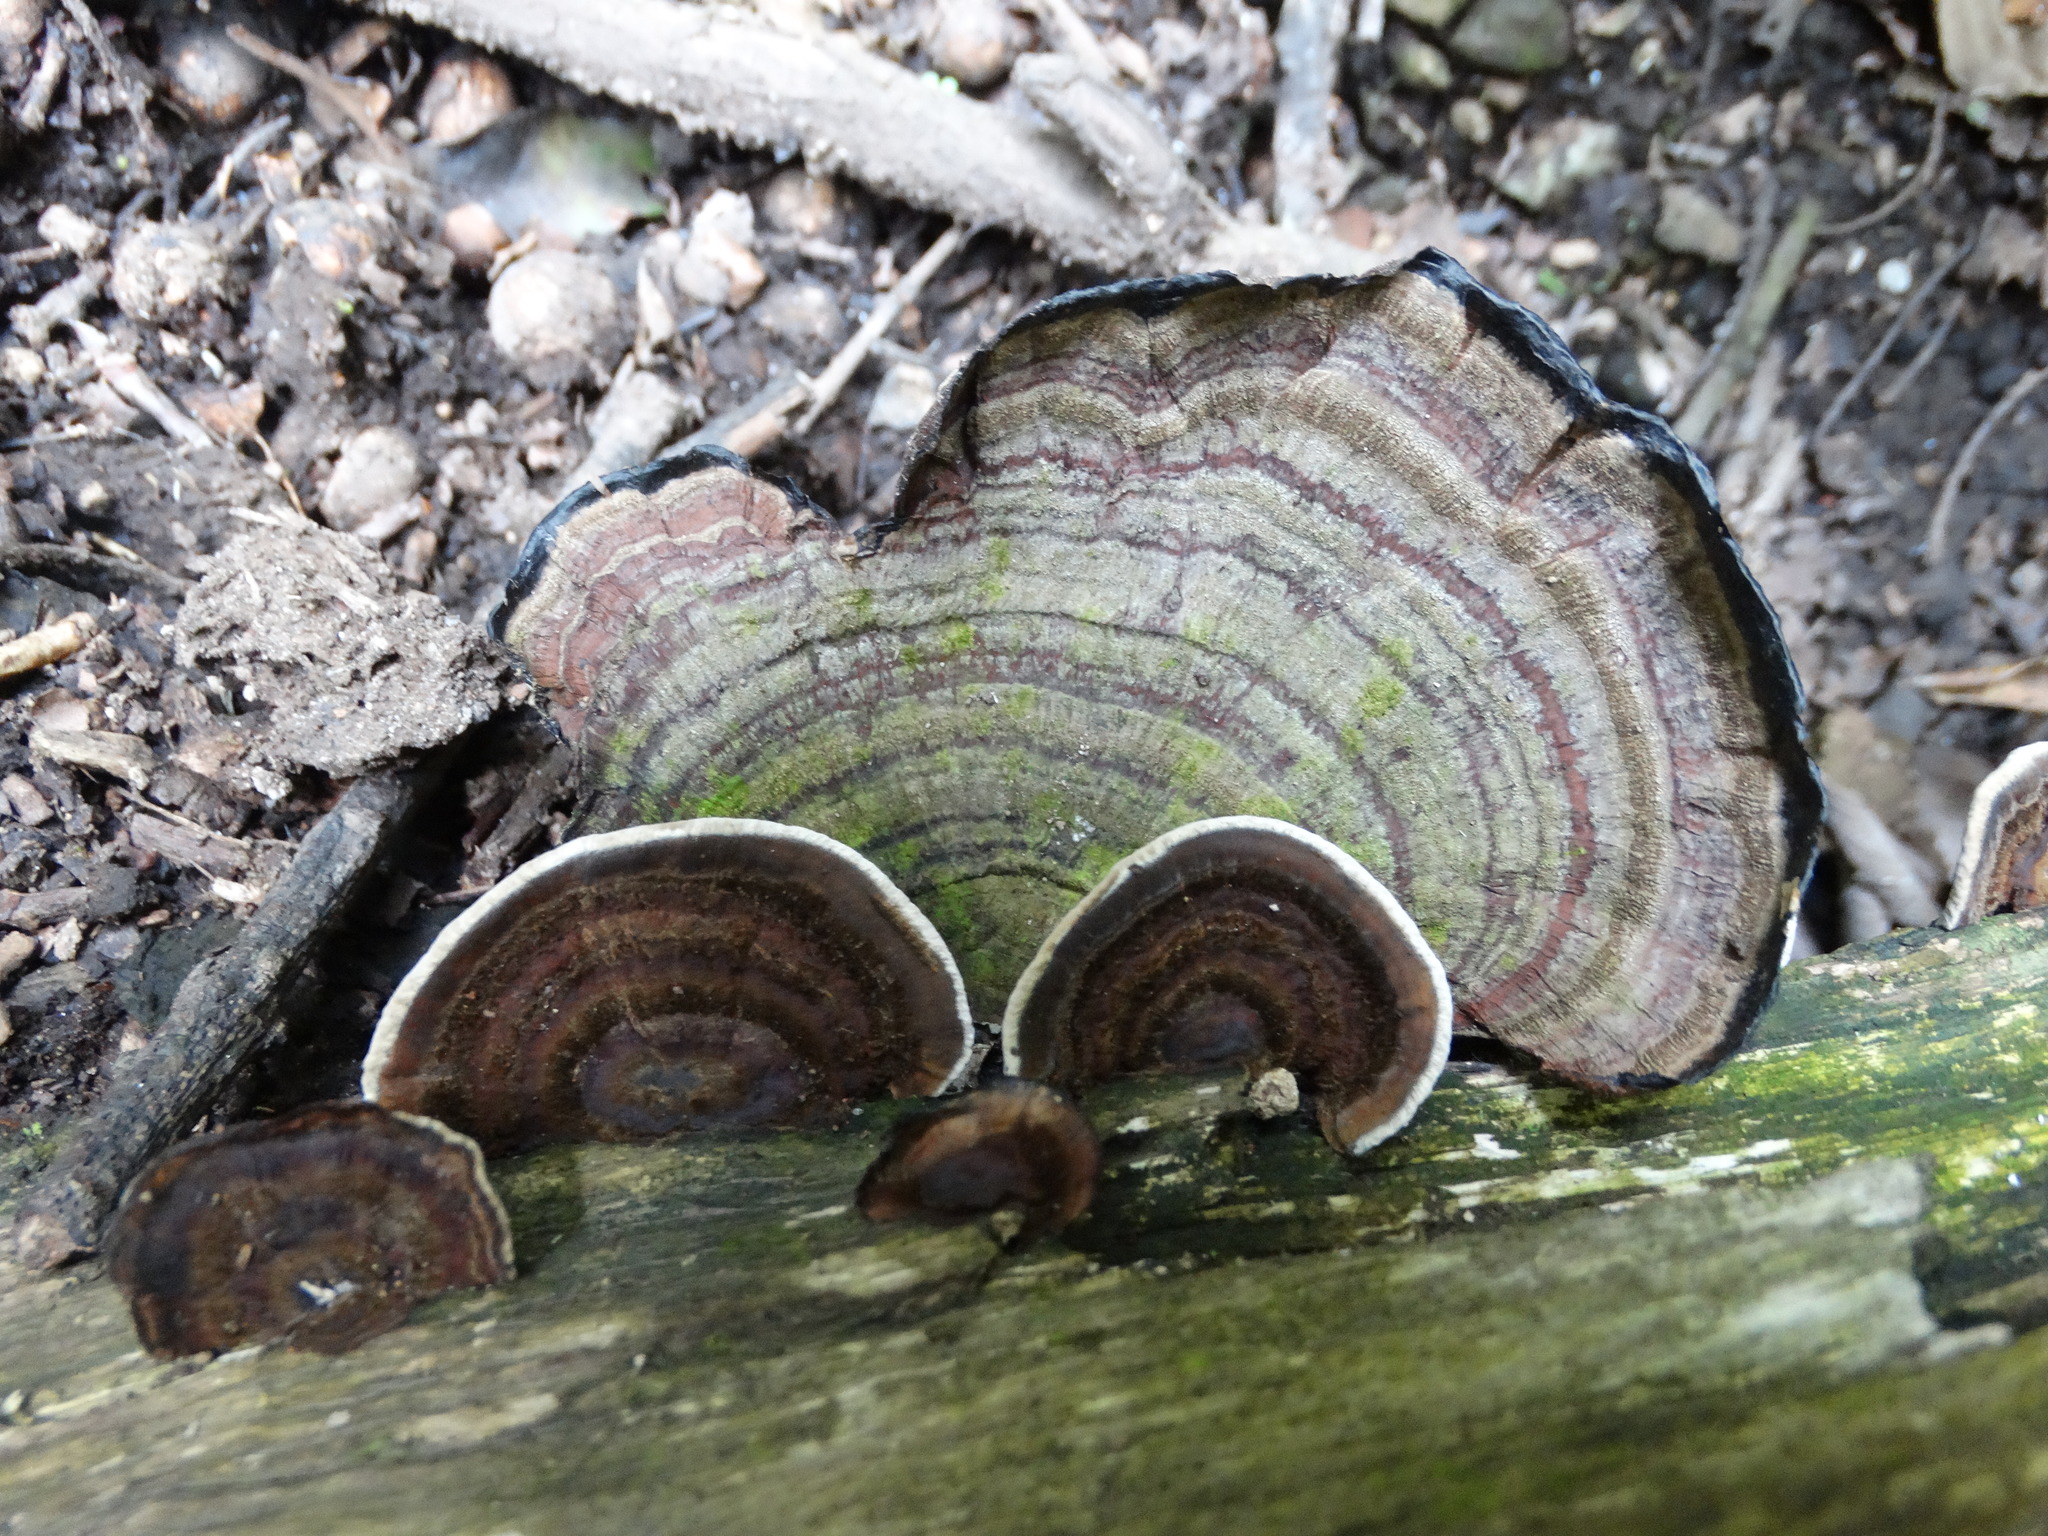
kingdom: Fungi
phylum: Basidiomycota
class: Agaricomycetes
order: Polyporales
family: Polyporaceae
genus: Trametes
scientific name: Trametes versicolor
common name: Turkeytail
